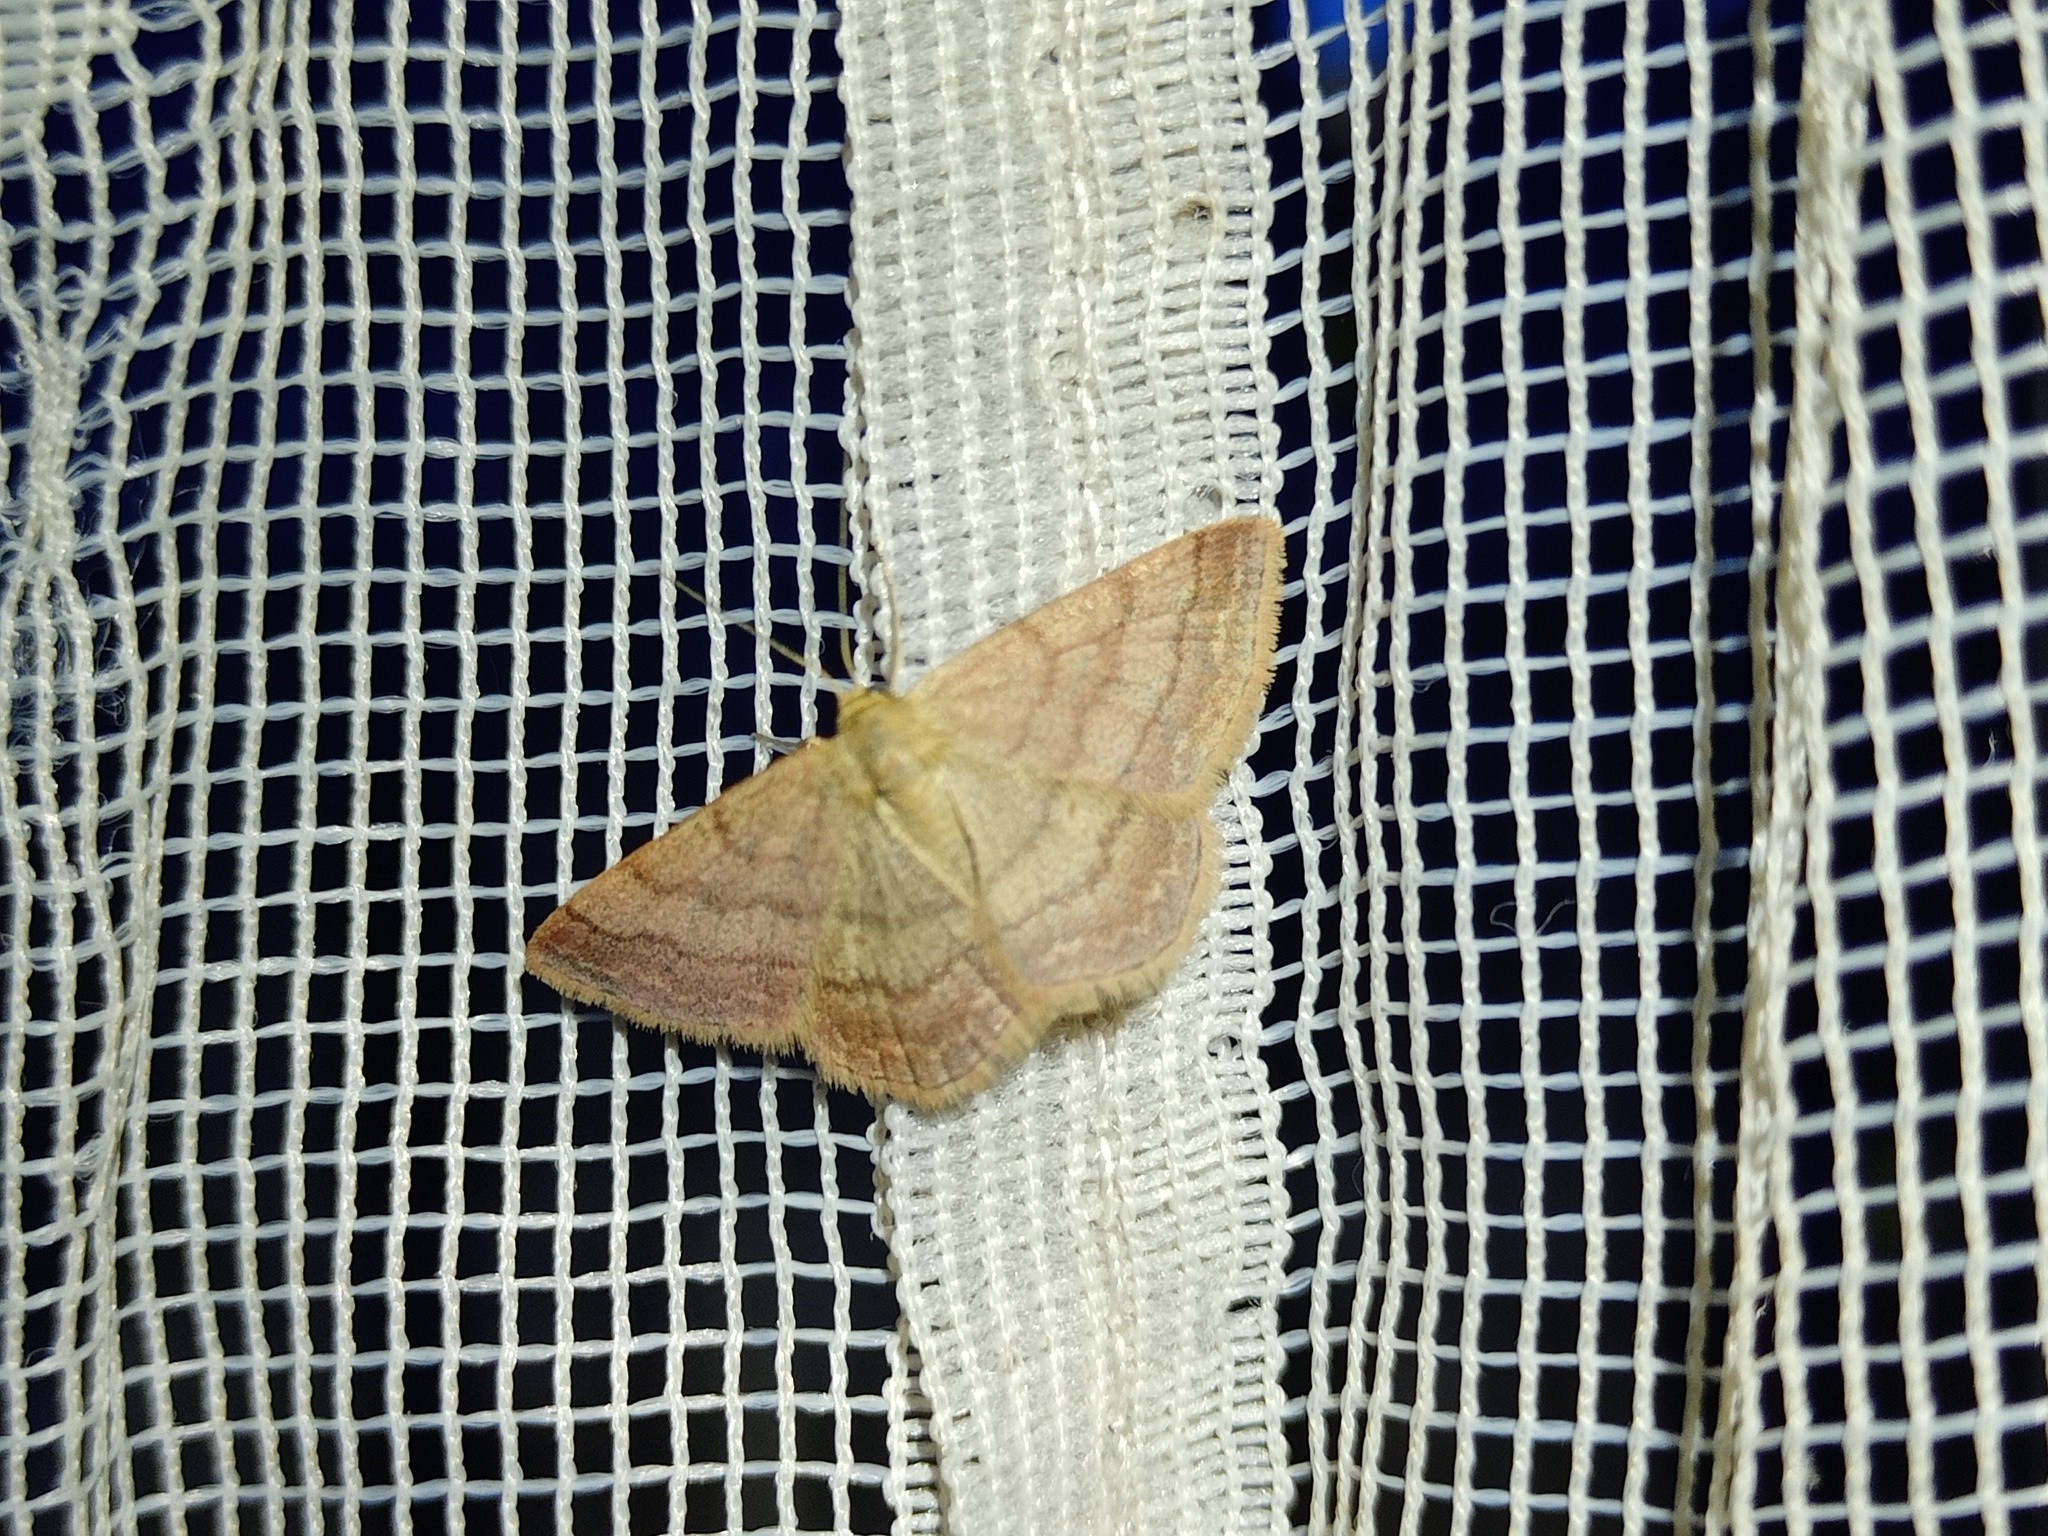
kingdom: Animalia
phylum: Arthropoda
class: Insecta
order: Lepidoptera
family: Geometridae
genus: Scopula
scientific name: Scopula rubiginata
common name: Tawny wave
